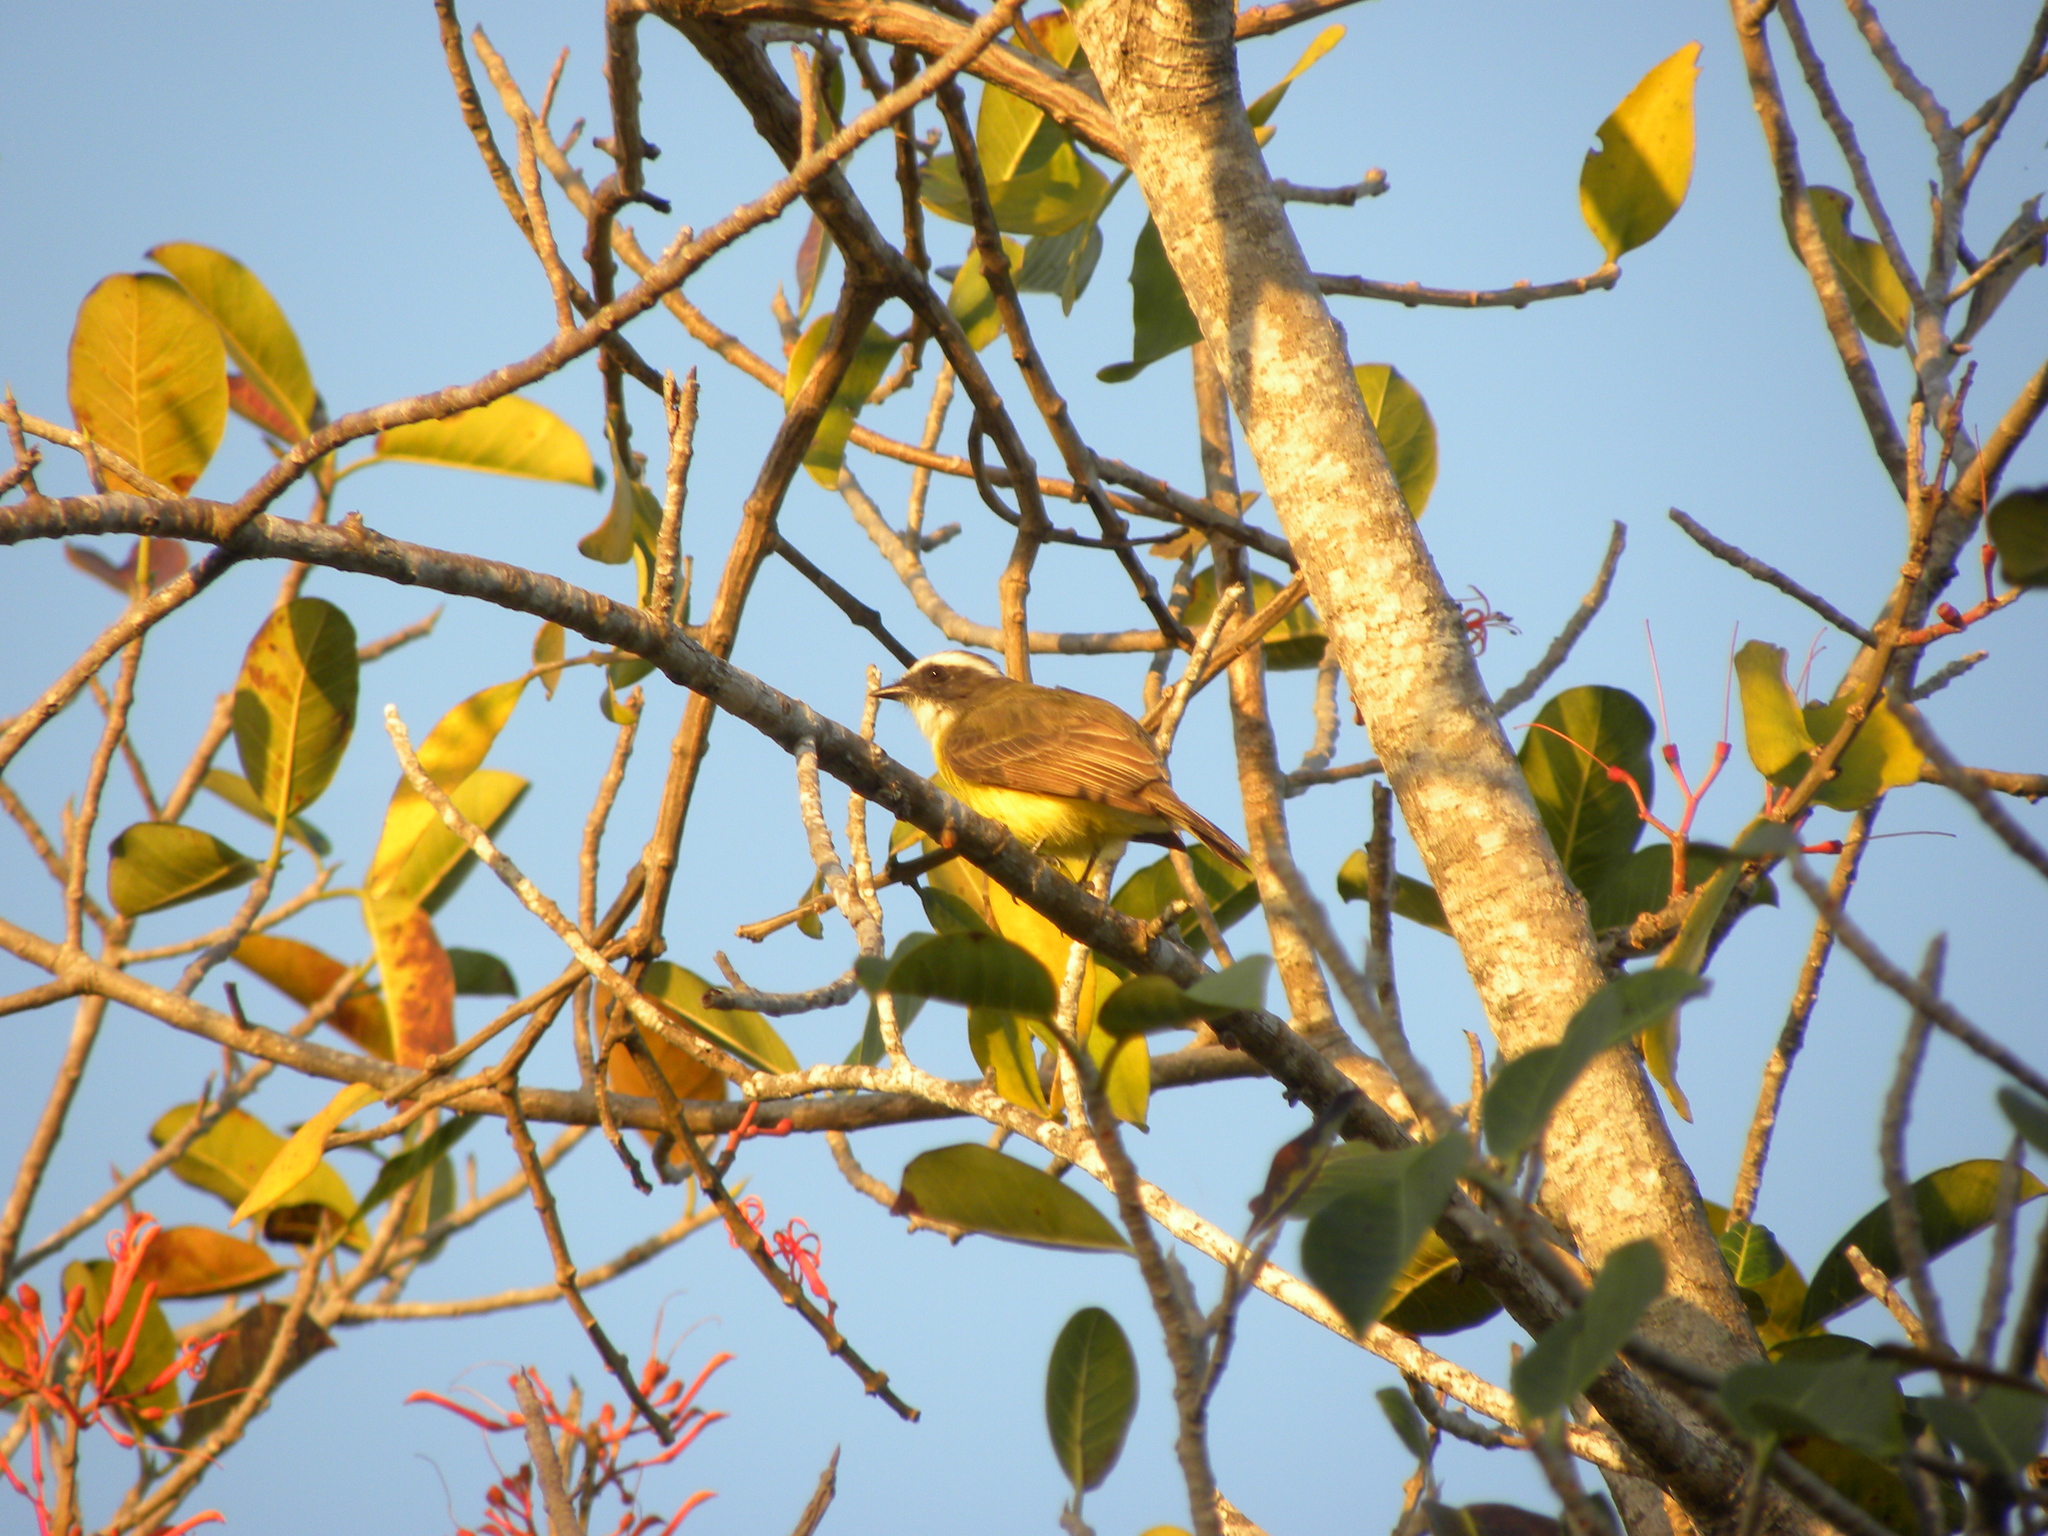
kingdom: Animalia
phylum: Chordata
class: Aves
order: Passeriformes
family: Tyrannidae
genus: Myiozetetes
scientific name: Myiozetetes similis
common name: Social flycatcher
